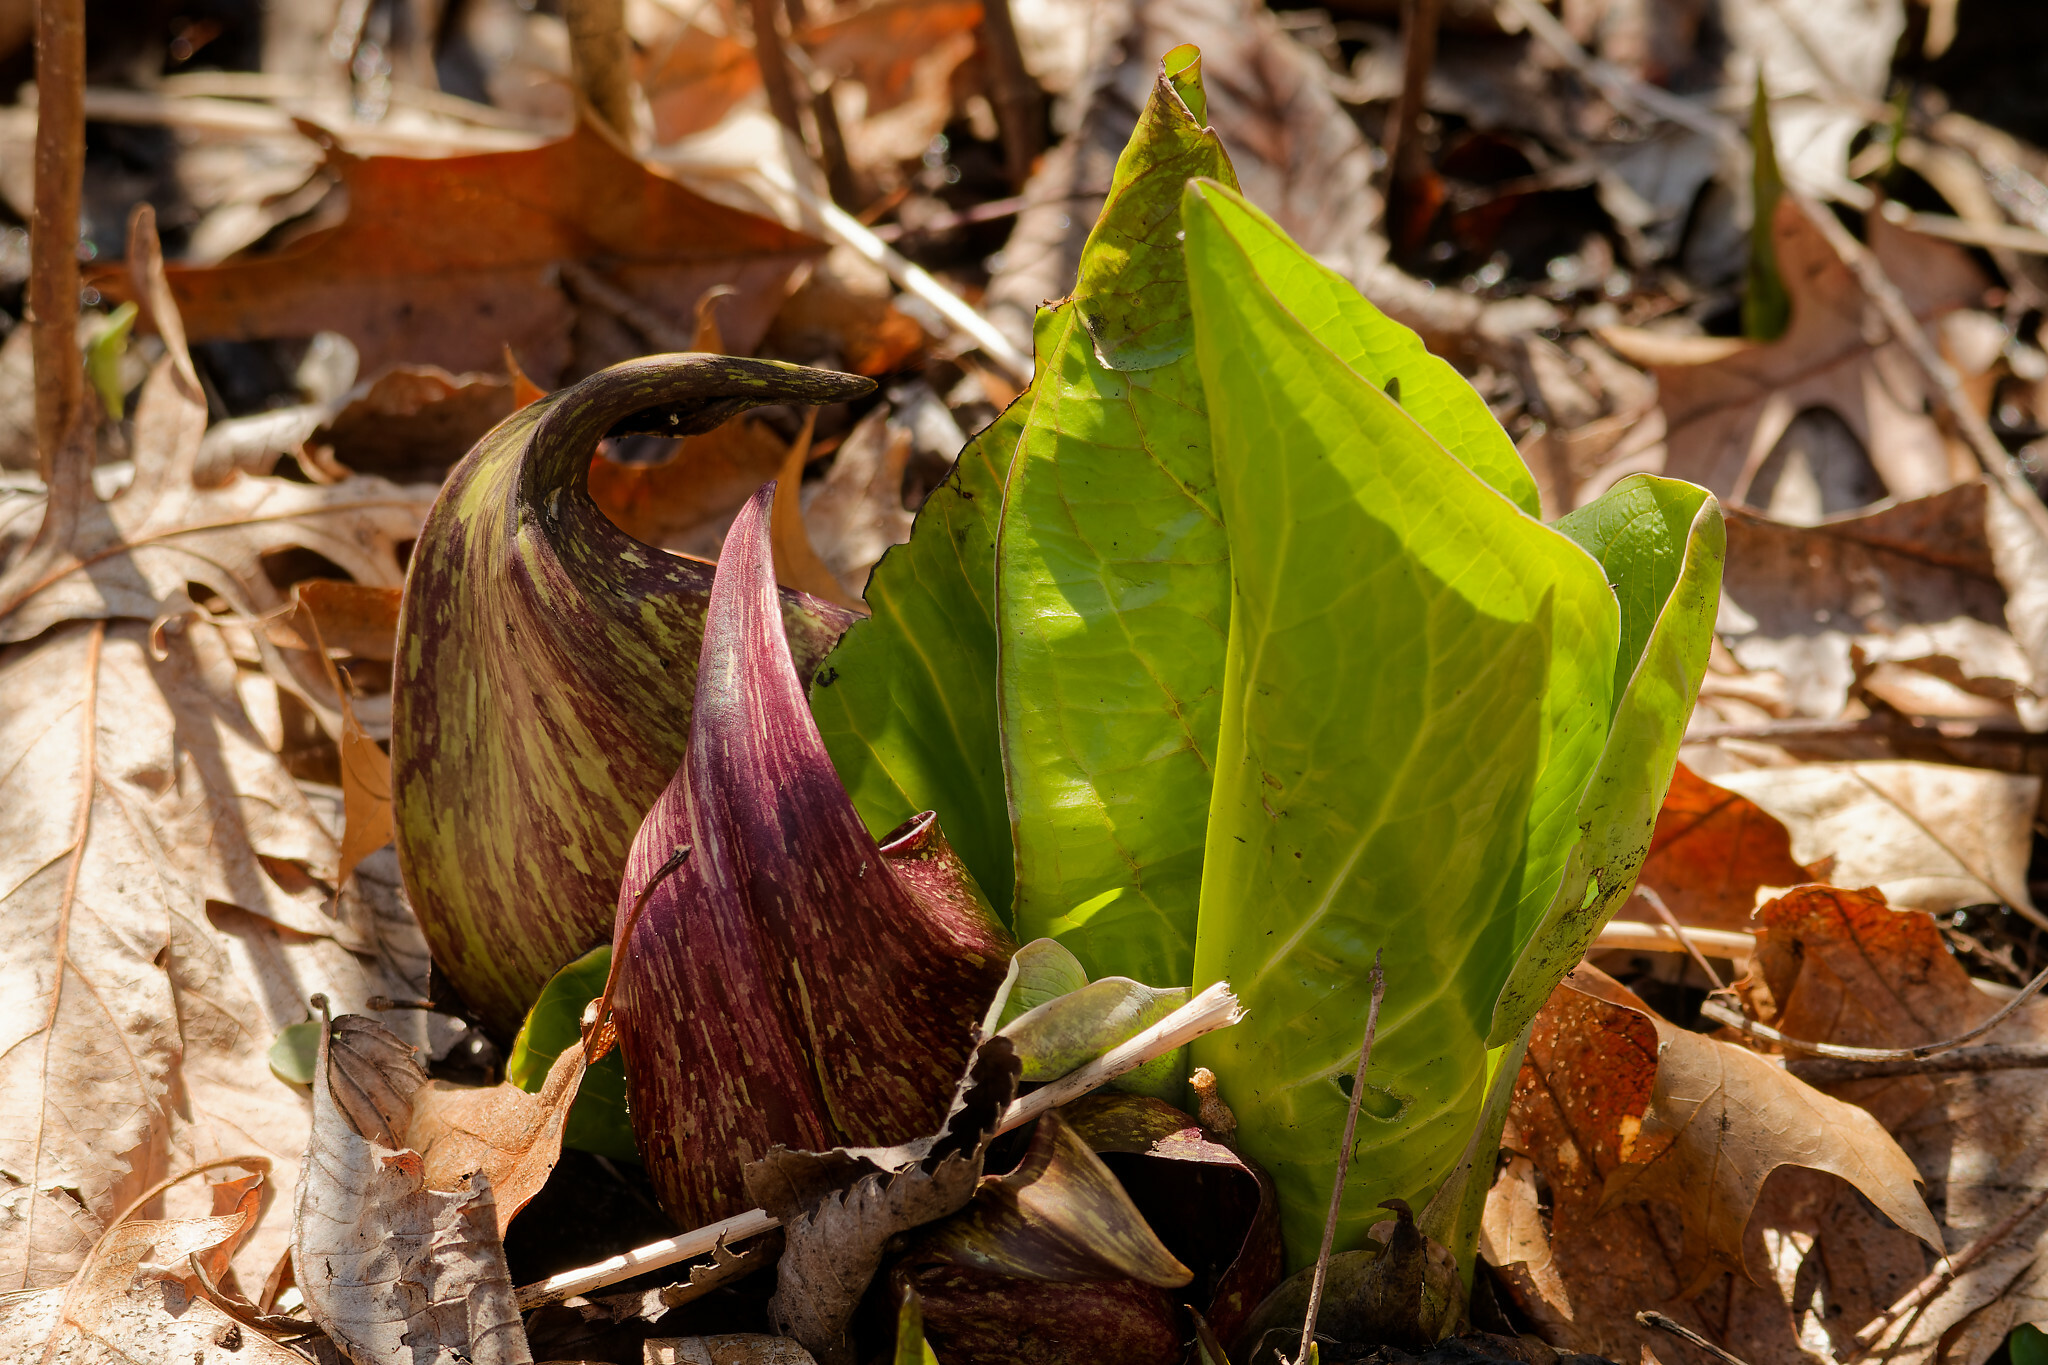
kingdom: Plantae
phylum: Tracheophyta
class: Liliopsida
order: Alismatales
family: Araceae
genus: Symplocarpus
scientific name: Symplocarpus foetidus
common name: Eastern skunk cabbage
